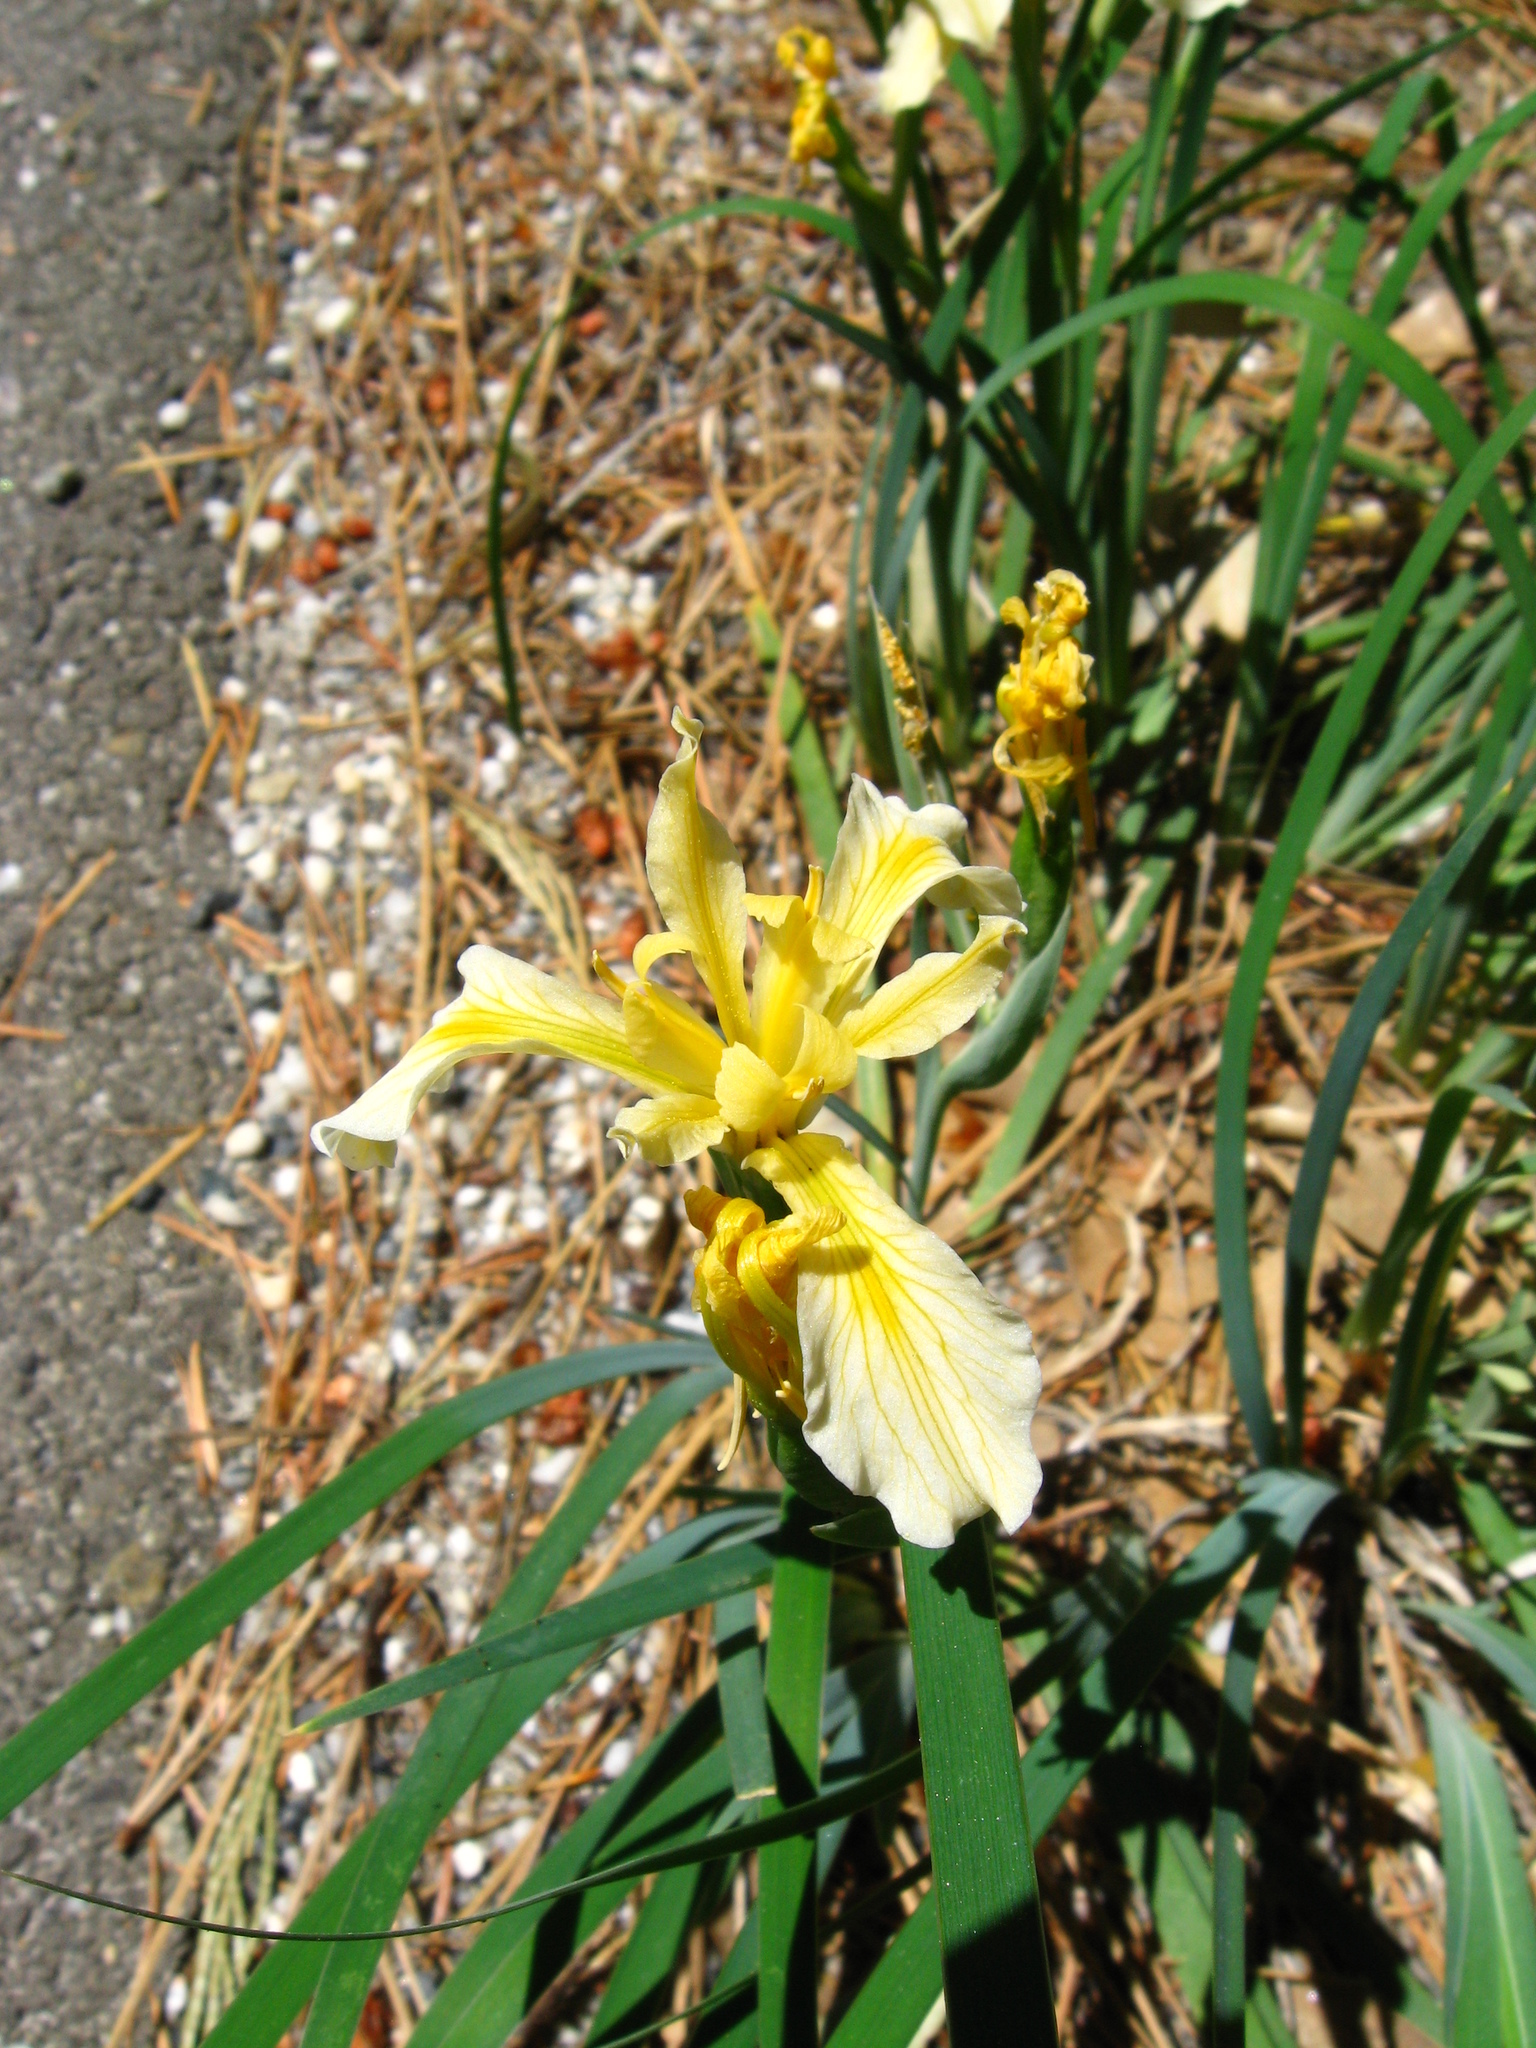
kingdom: Plantae
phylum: Tracheophyta
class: Liliopsida
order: Asparagales
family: Iridaceae
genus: Iris
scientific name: Iris hartwegii
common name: Sierra iris
